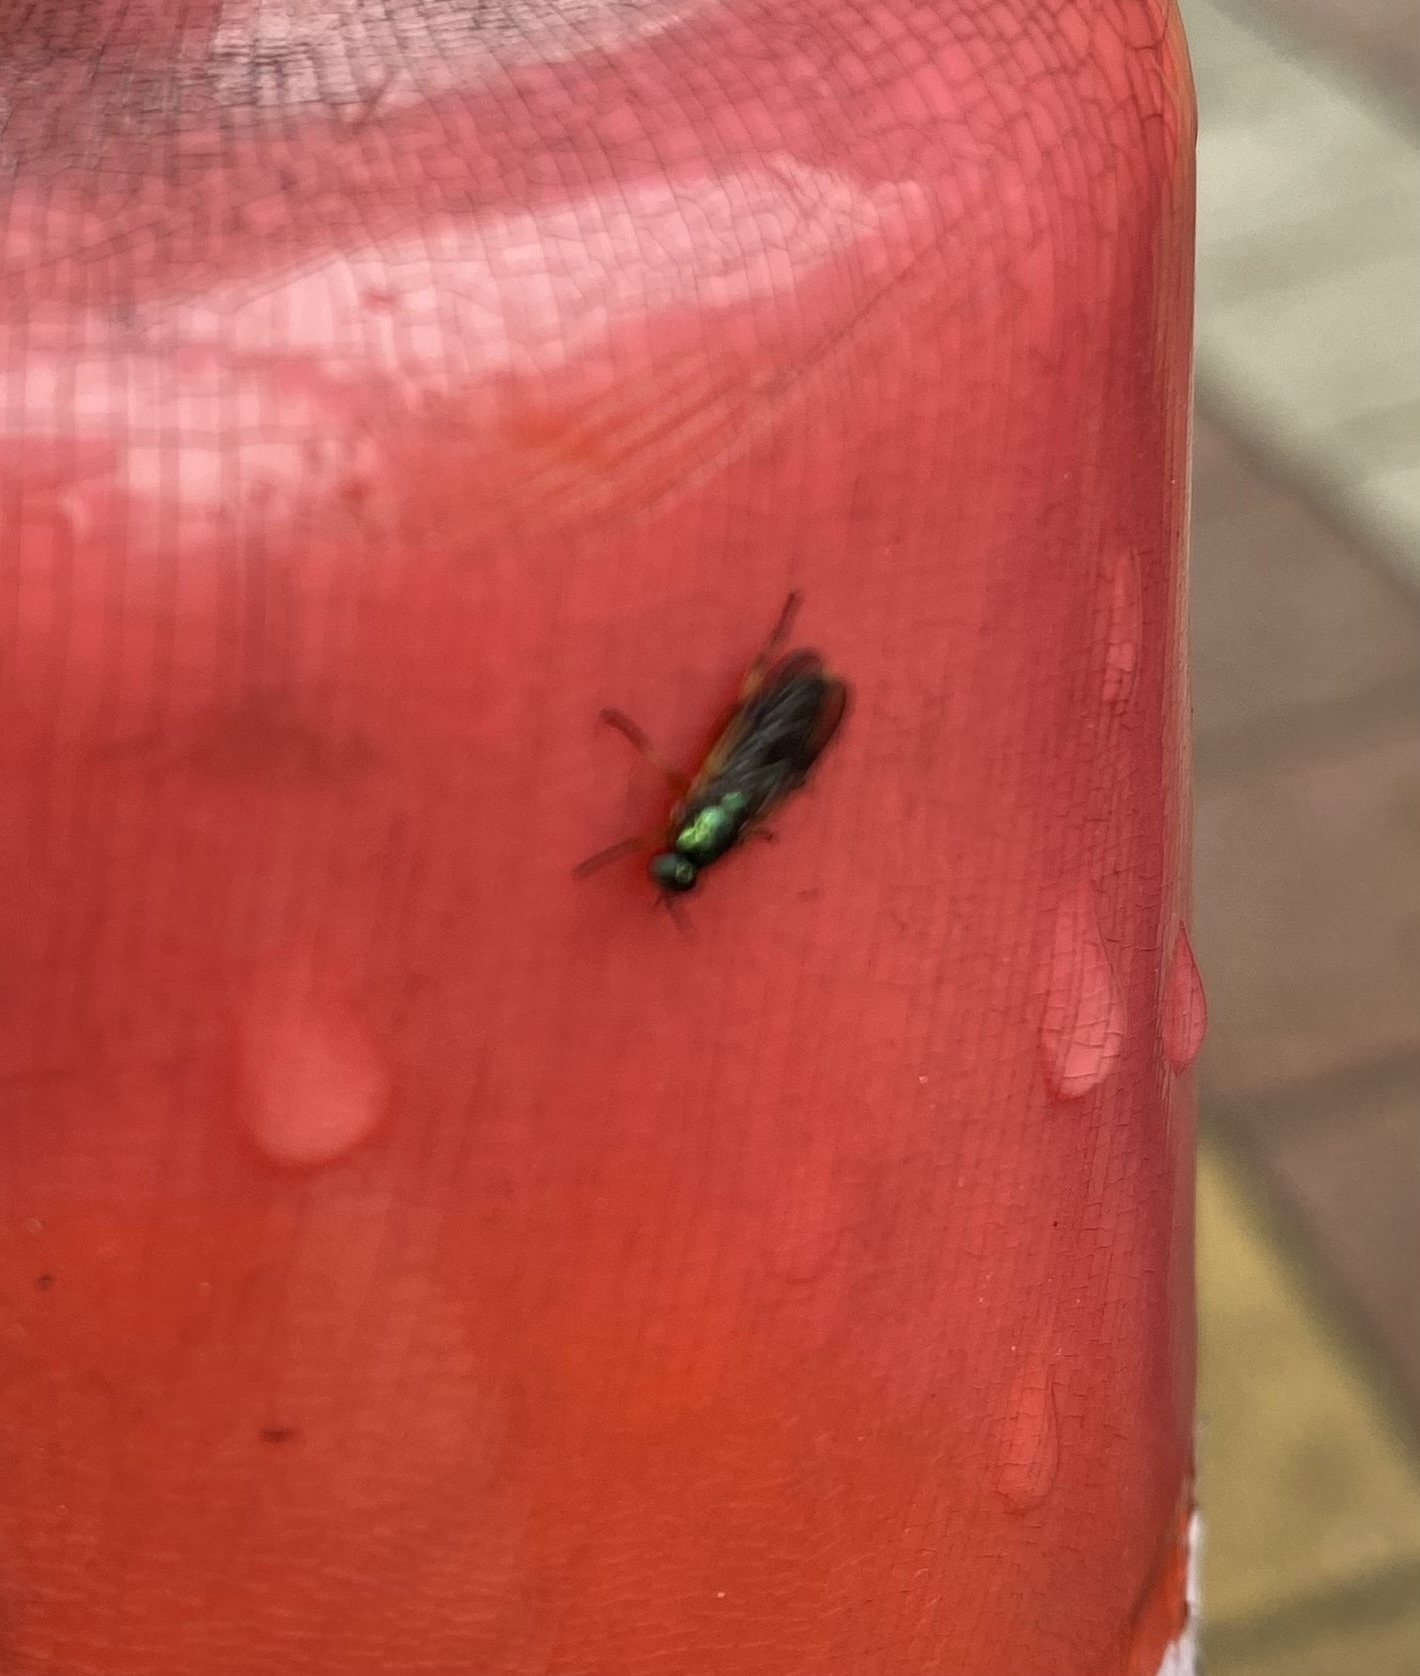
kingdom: Animalia
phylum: Arthropoda
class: Insecta
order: Diptera
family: Stratiomyidae
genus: Actina
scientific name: Actina chalybea
